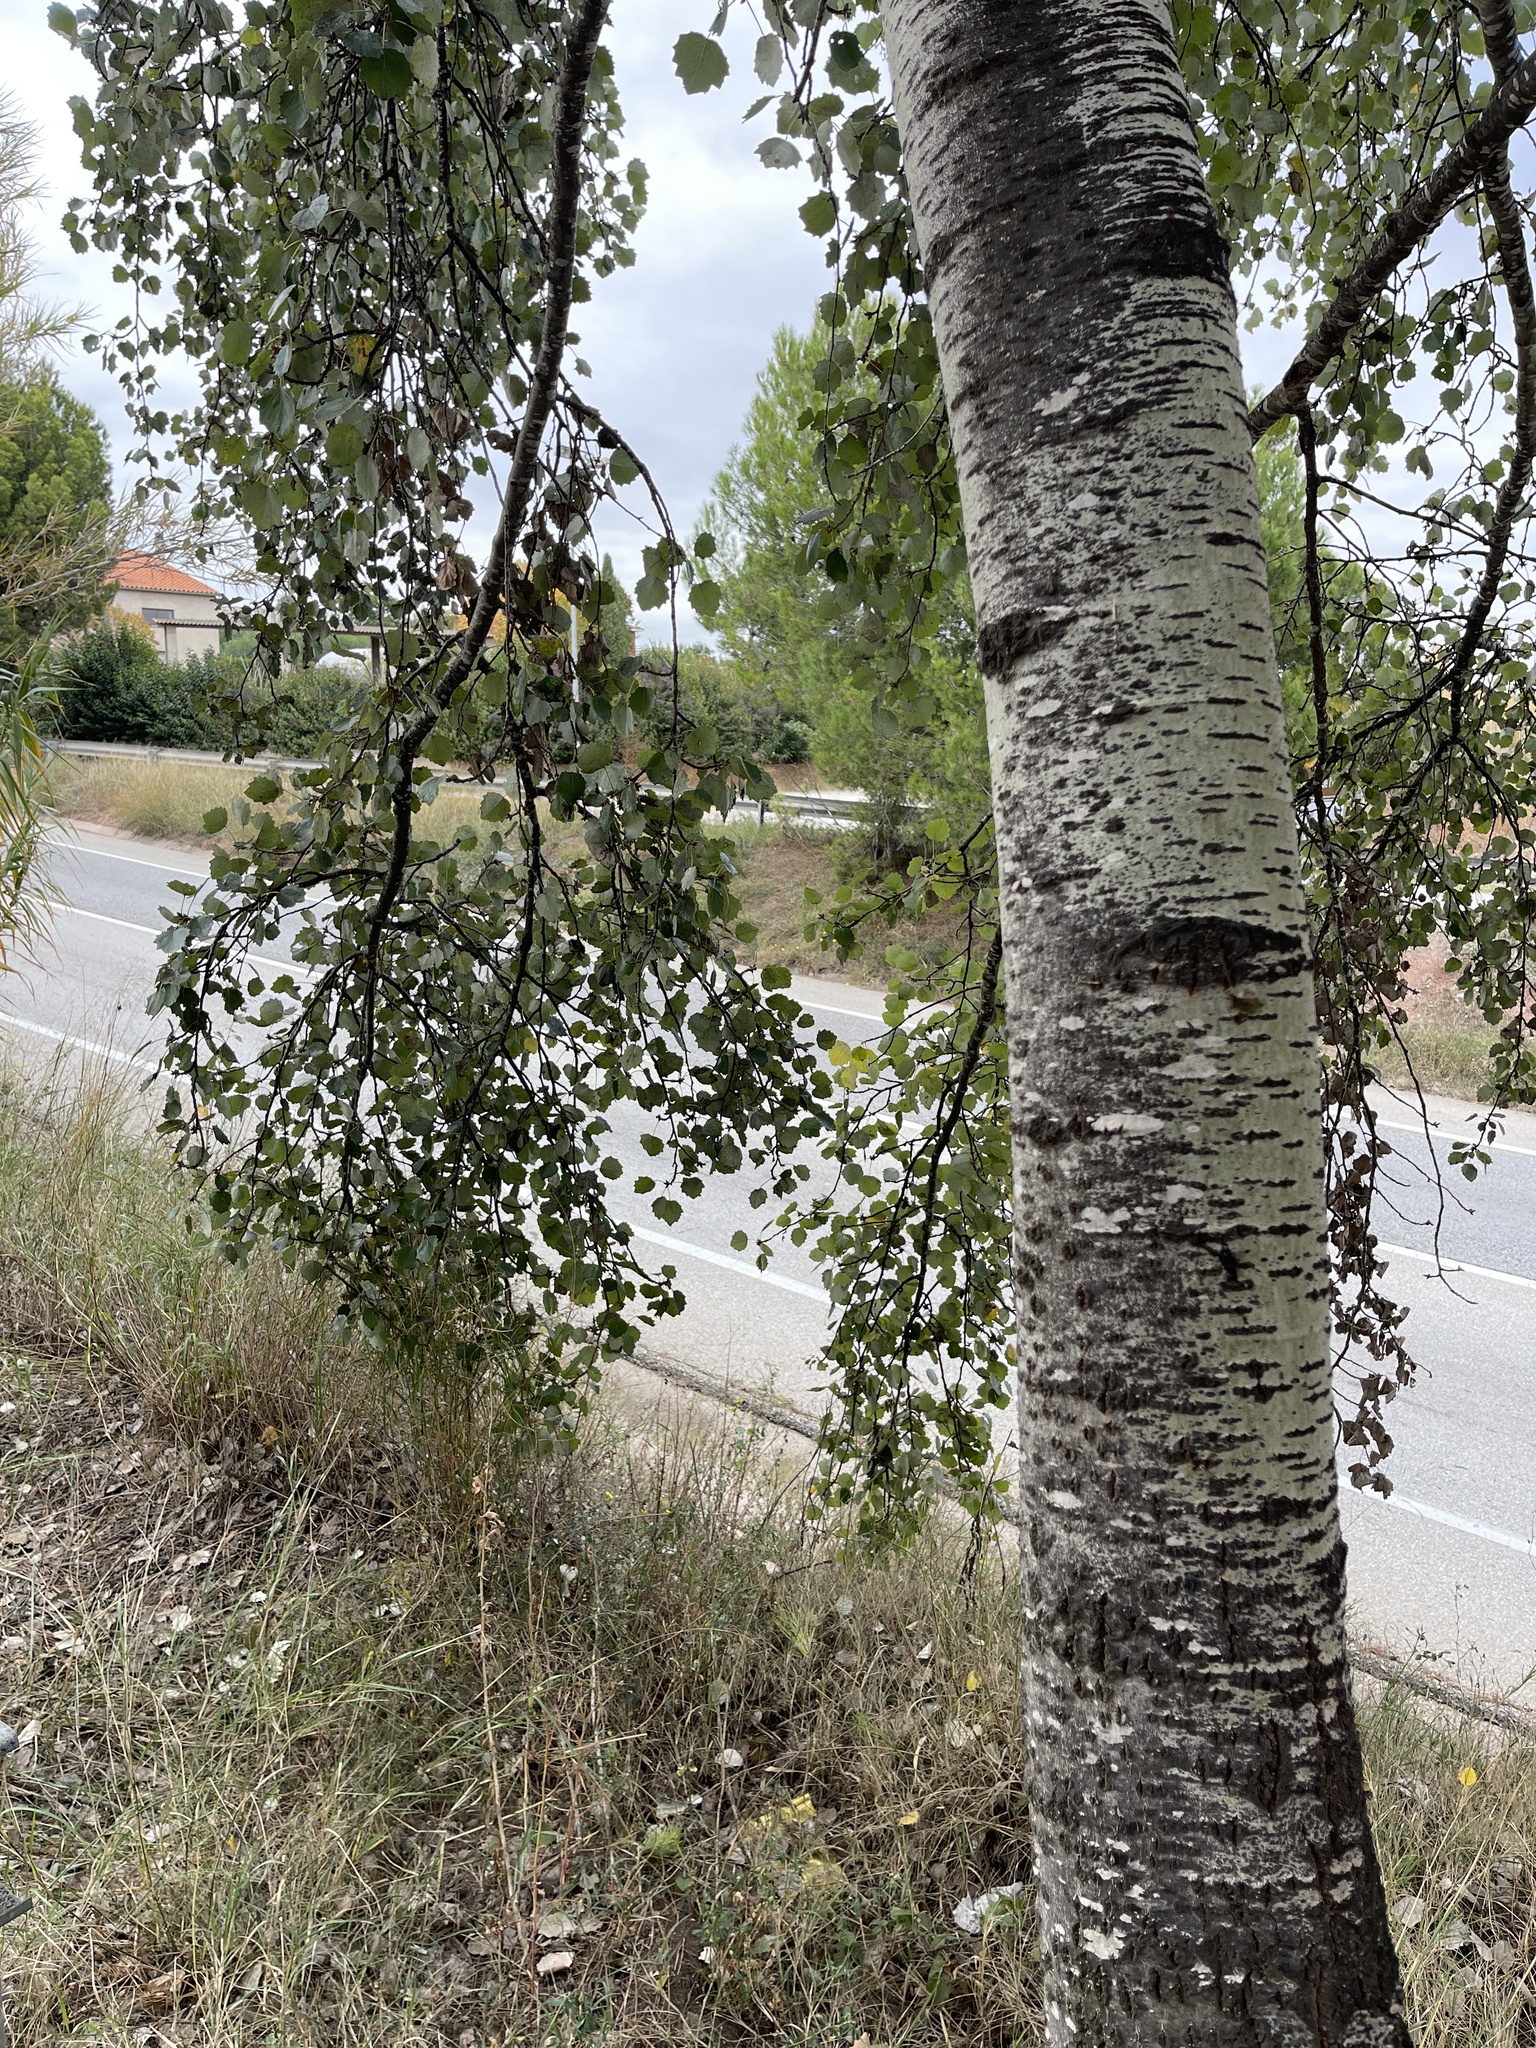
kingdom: Plantae
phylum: Tracheophyta
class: Magnoliopsida
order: Malpighiales
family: Salicaceae
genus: Populus
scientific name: Populus alba
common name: White poplar
